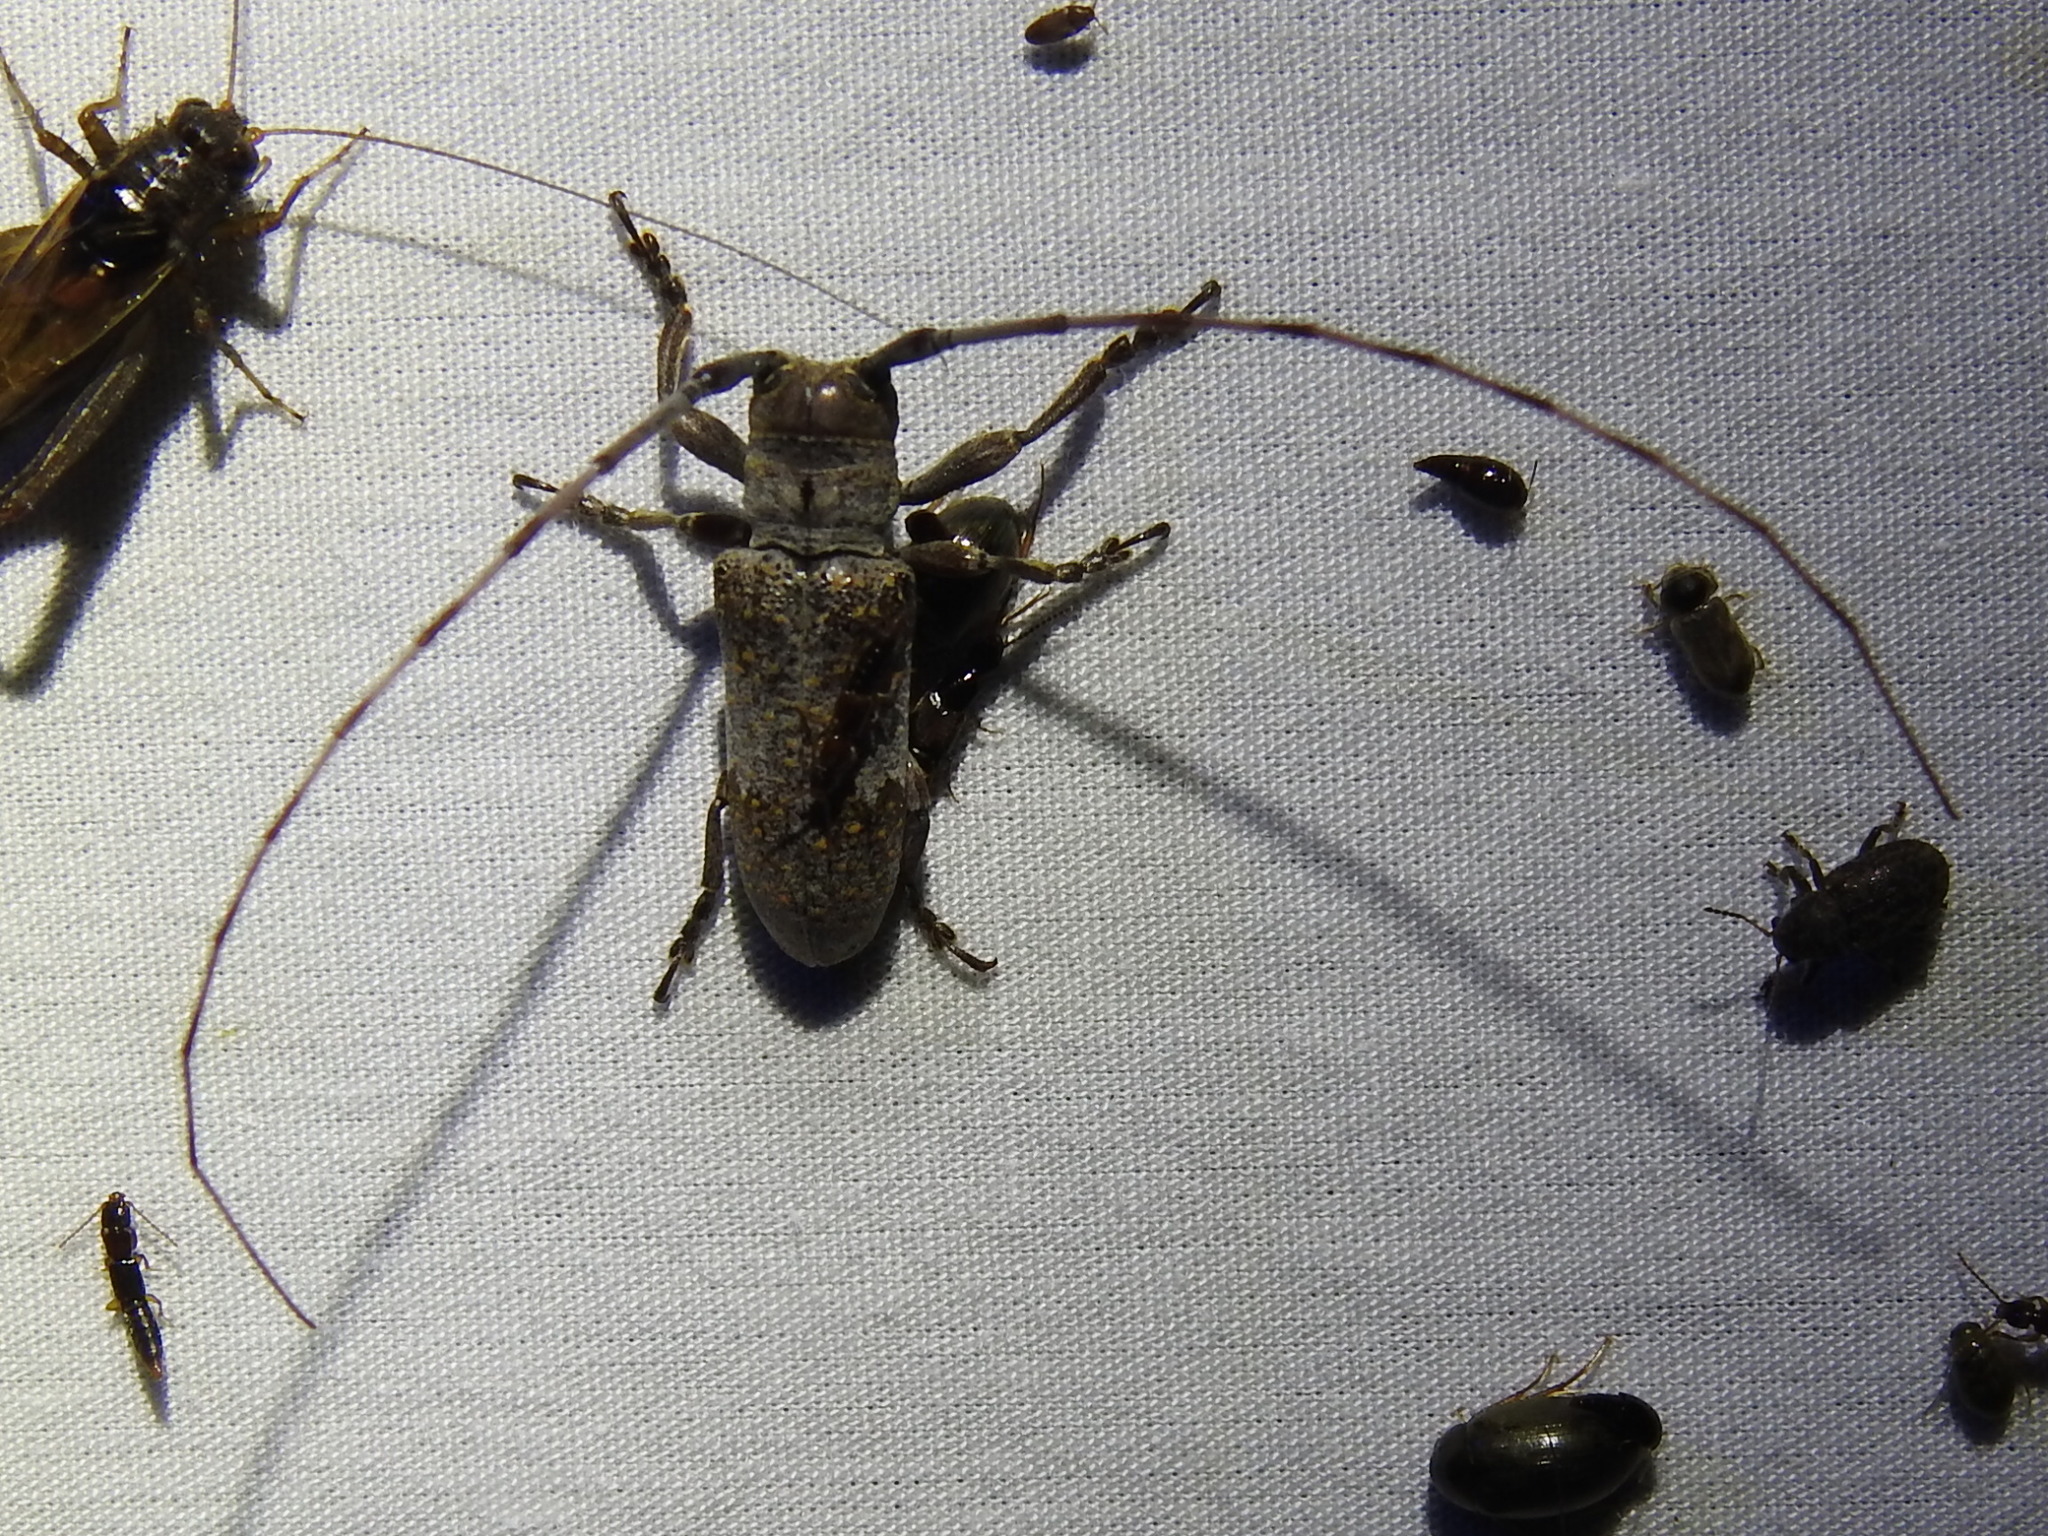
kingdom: Animalia
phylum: Arthropoda
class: Insecta
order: Coleoptera
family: Cerambycidae
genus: Oncideres
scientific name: Oncideres cingulata
